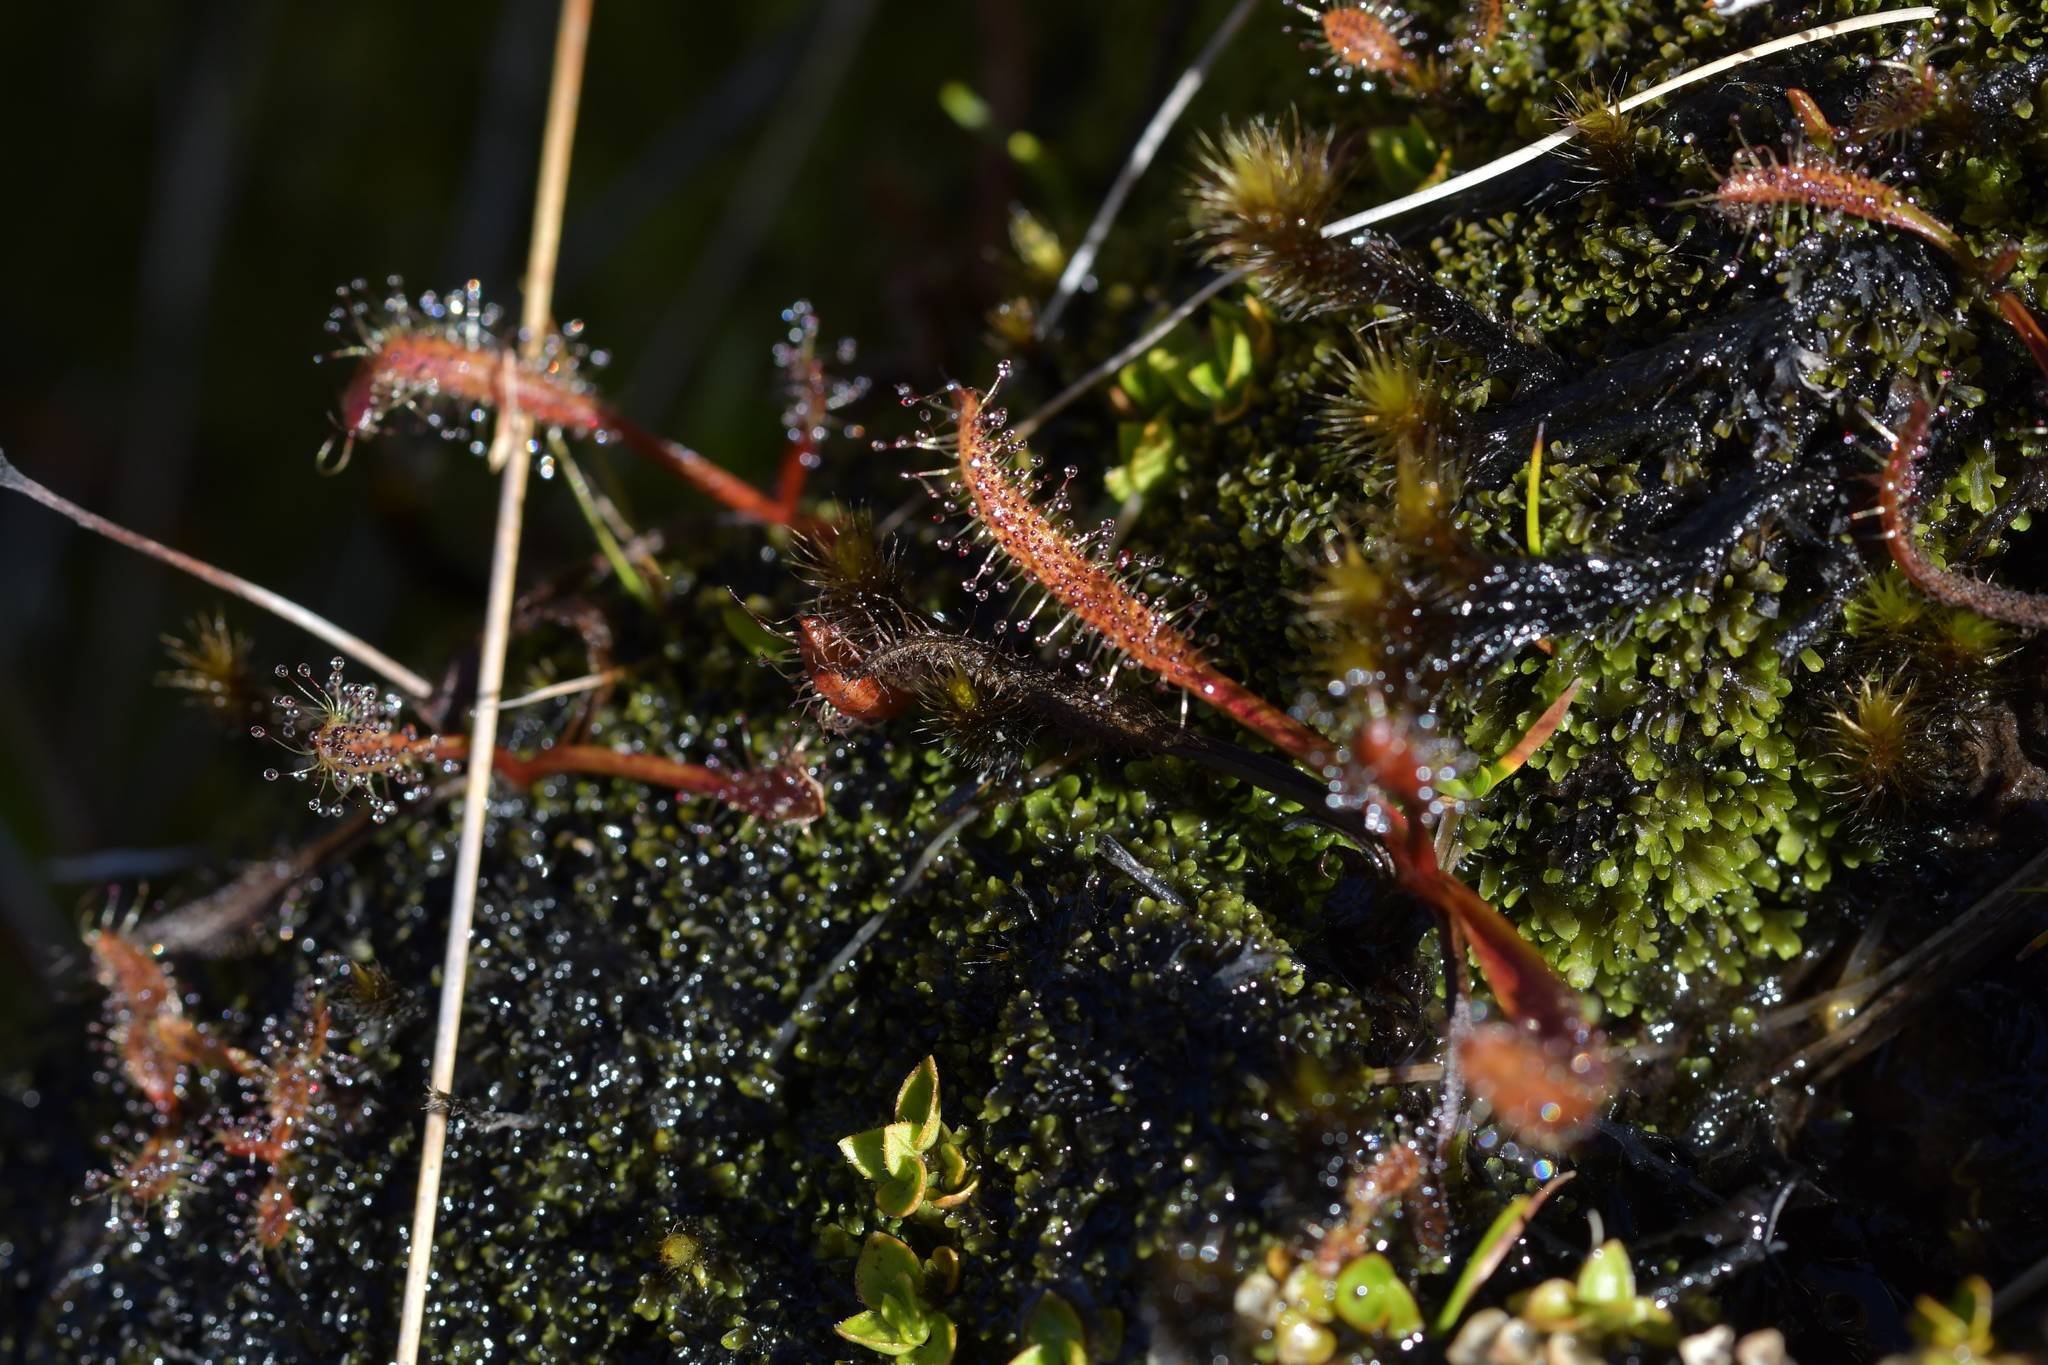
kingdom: Plantae
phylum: Tracheophyta
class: Magnoliopsida
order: Caryophyllales
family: Droseraceae
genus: Drosera
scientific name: Drosera arcturi
